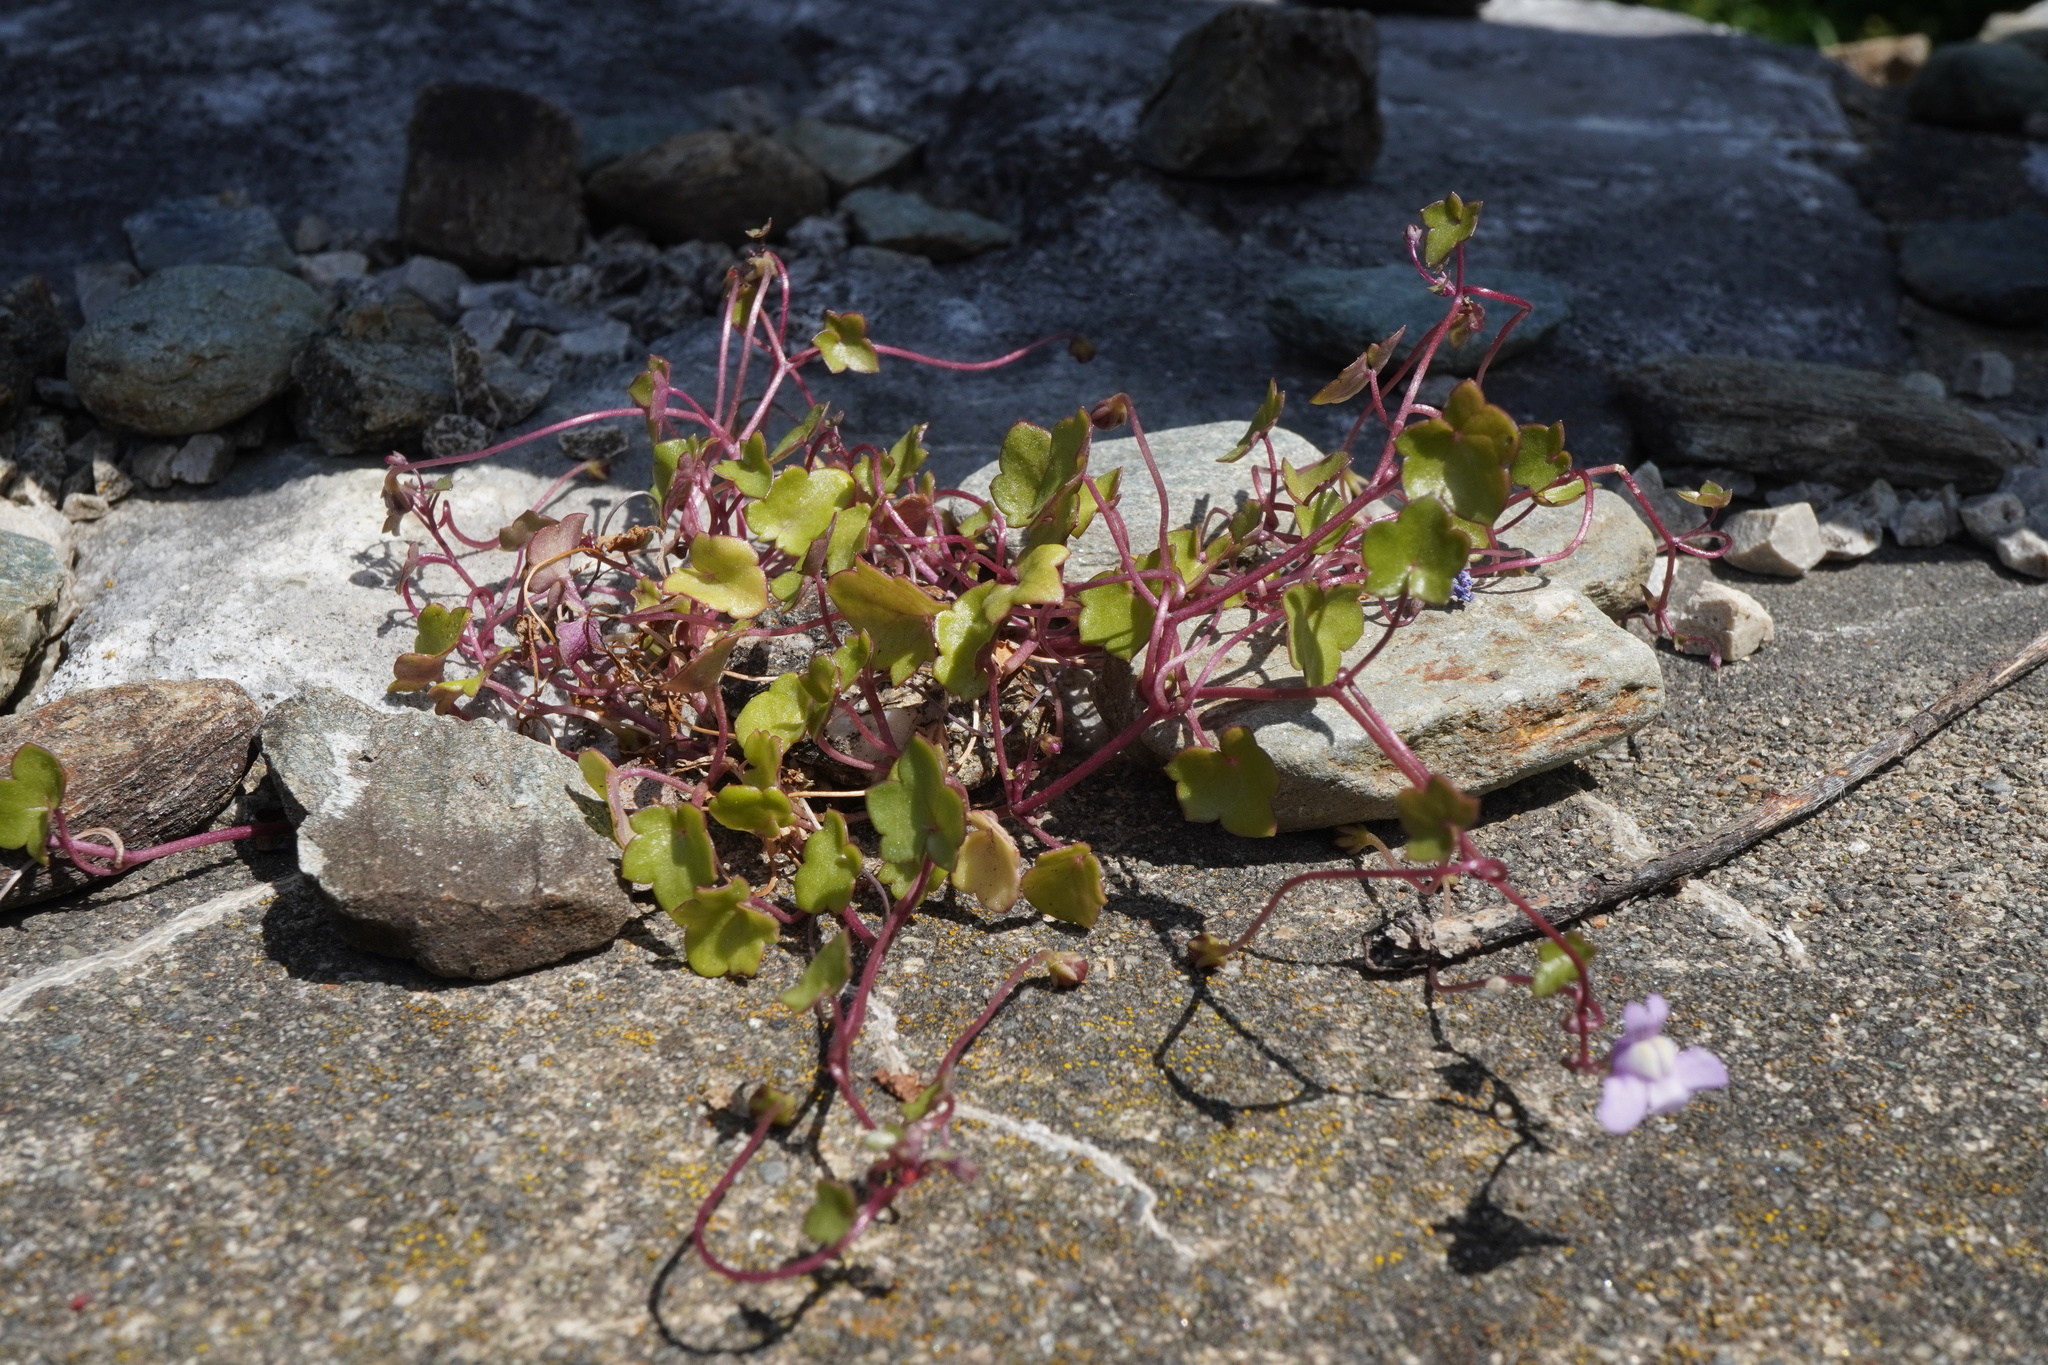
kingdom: Plantae
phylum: Tracheophyta
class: Magnoliopsida
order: Lamiales
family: Plantaginaceae
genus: Cymbalaria
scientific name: Cymbalaria muralis
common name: Ivy-leaved toadflax
